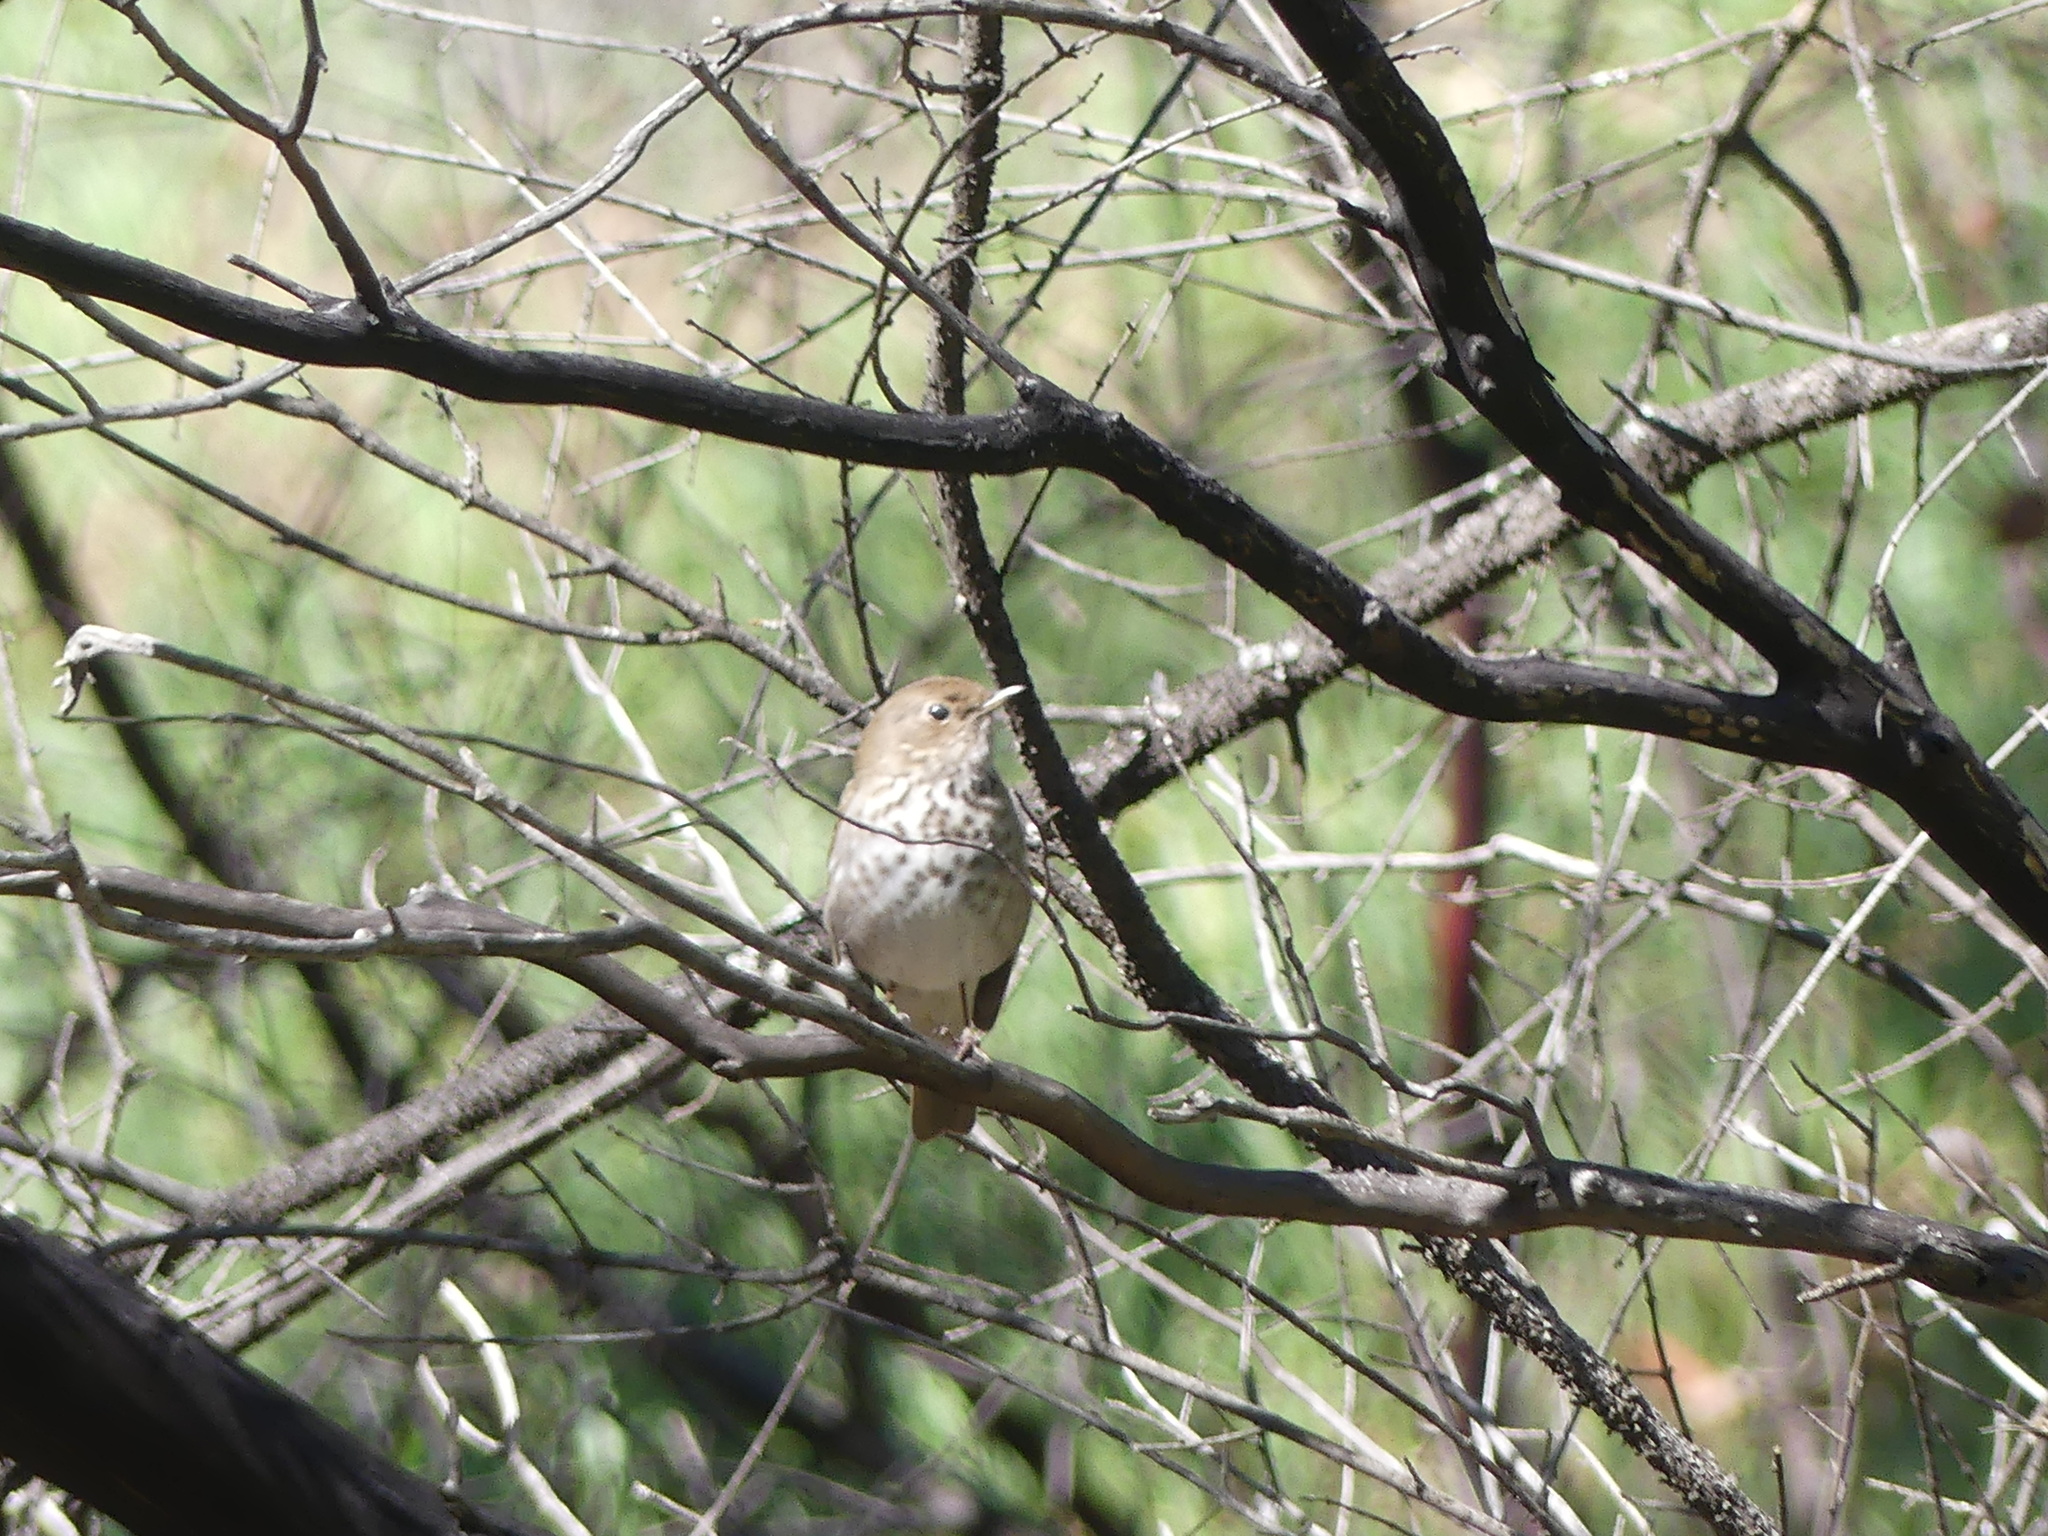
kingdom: Animalia
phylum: Chordata
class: Aves
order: Passeriformes
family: Turdidae
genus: Catharus
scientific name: Catharus guttatus
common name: Hermit thrush
